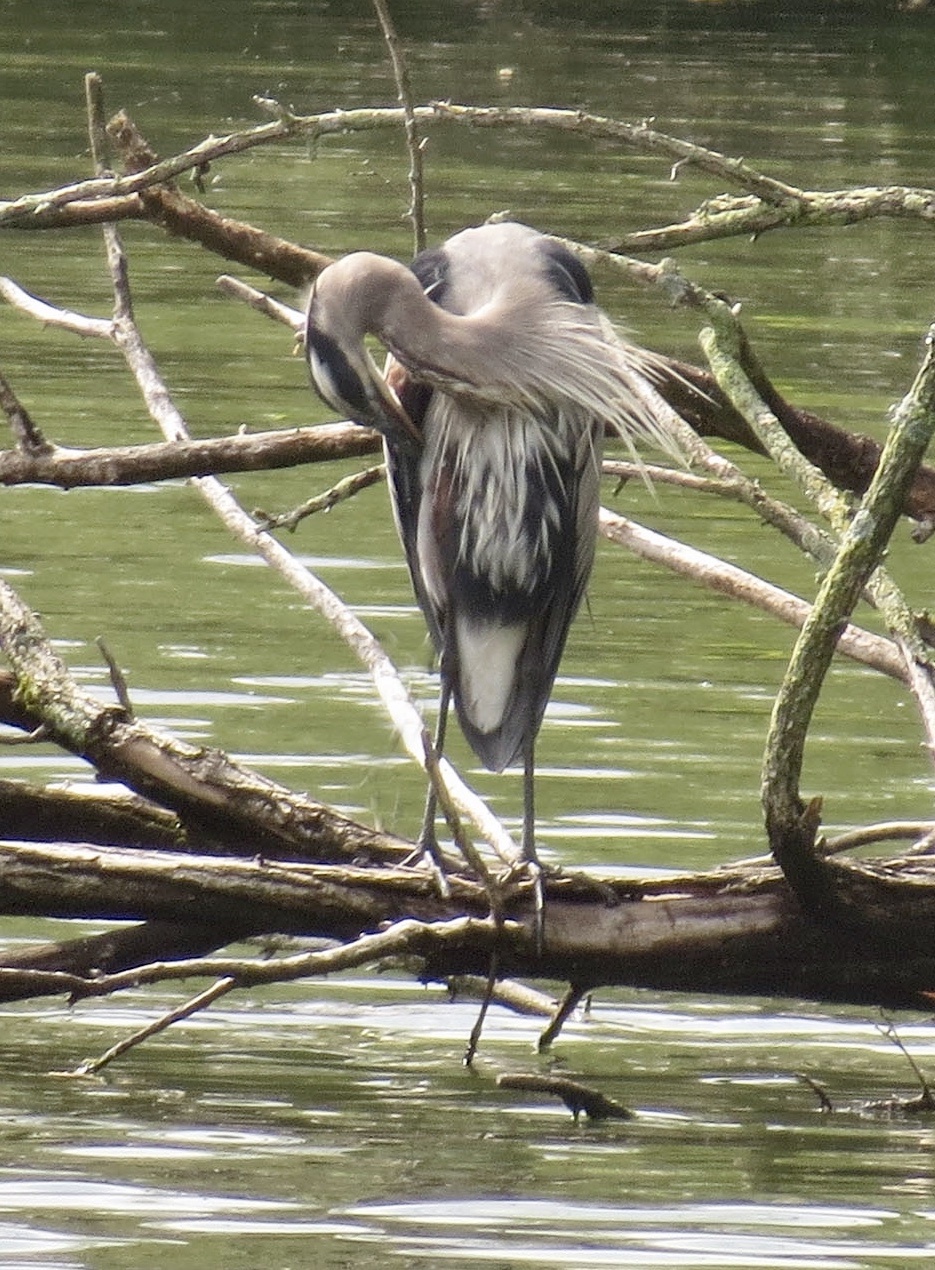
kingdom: Animalia
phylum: Chordata
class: Aves
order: Pelecaniformes
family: Ardeidae
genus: Ardea
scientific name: Ardea herodias
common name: Great blue heron
